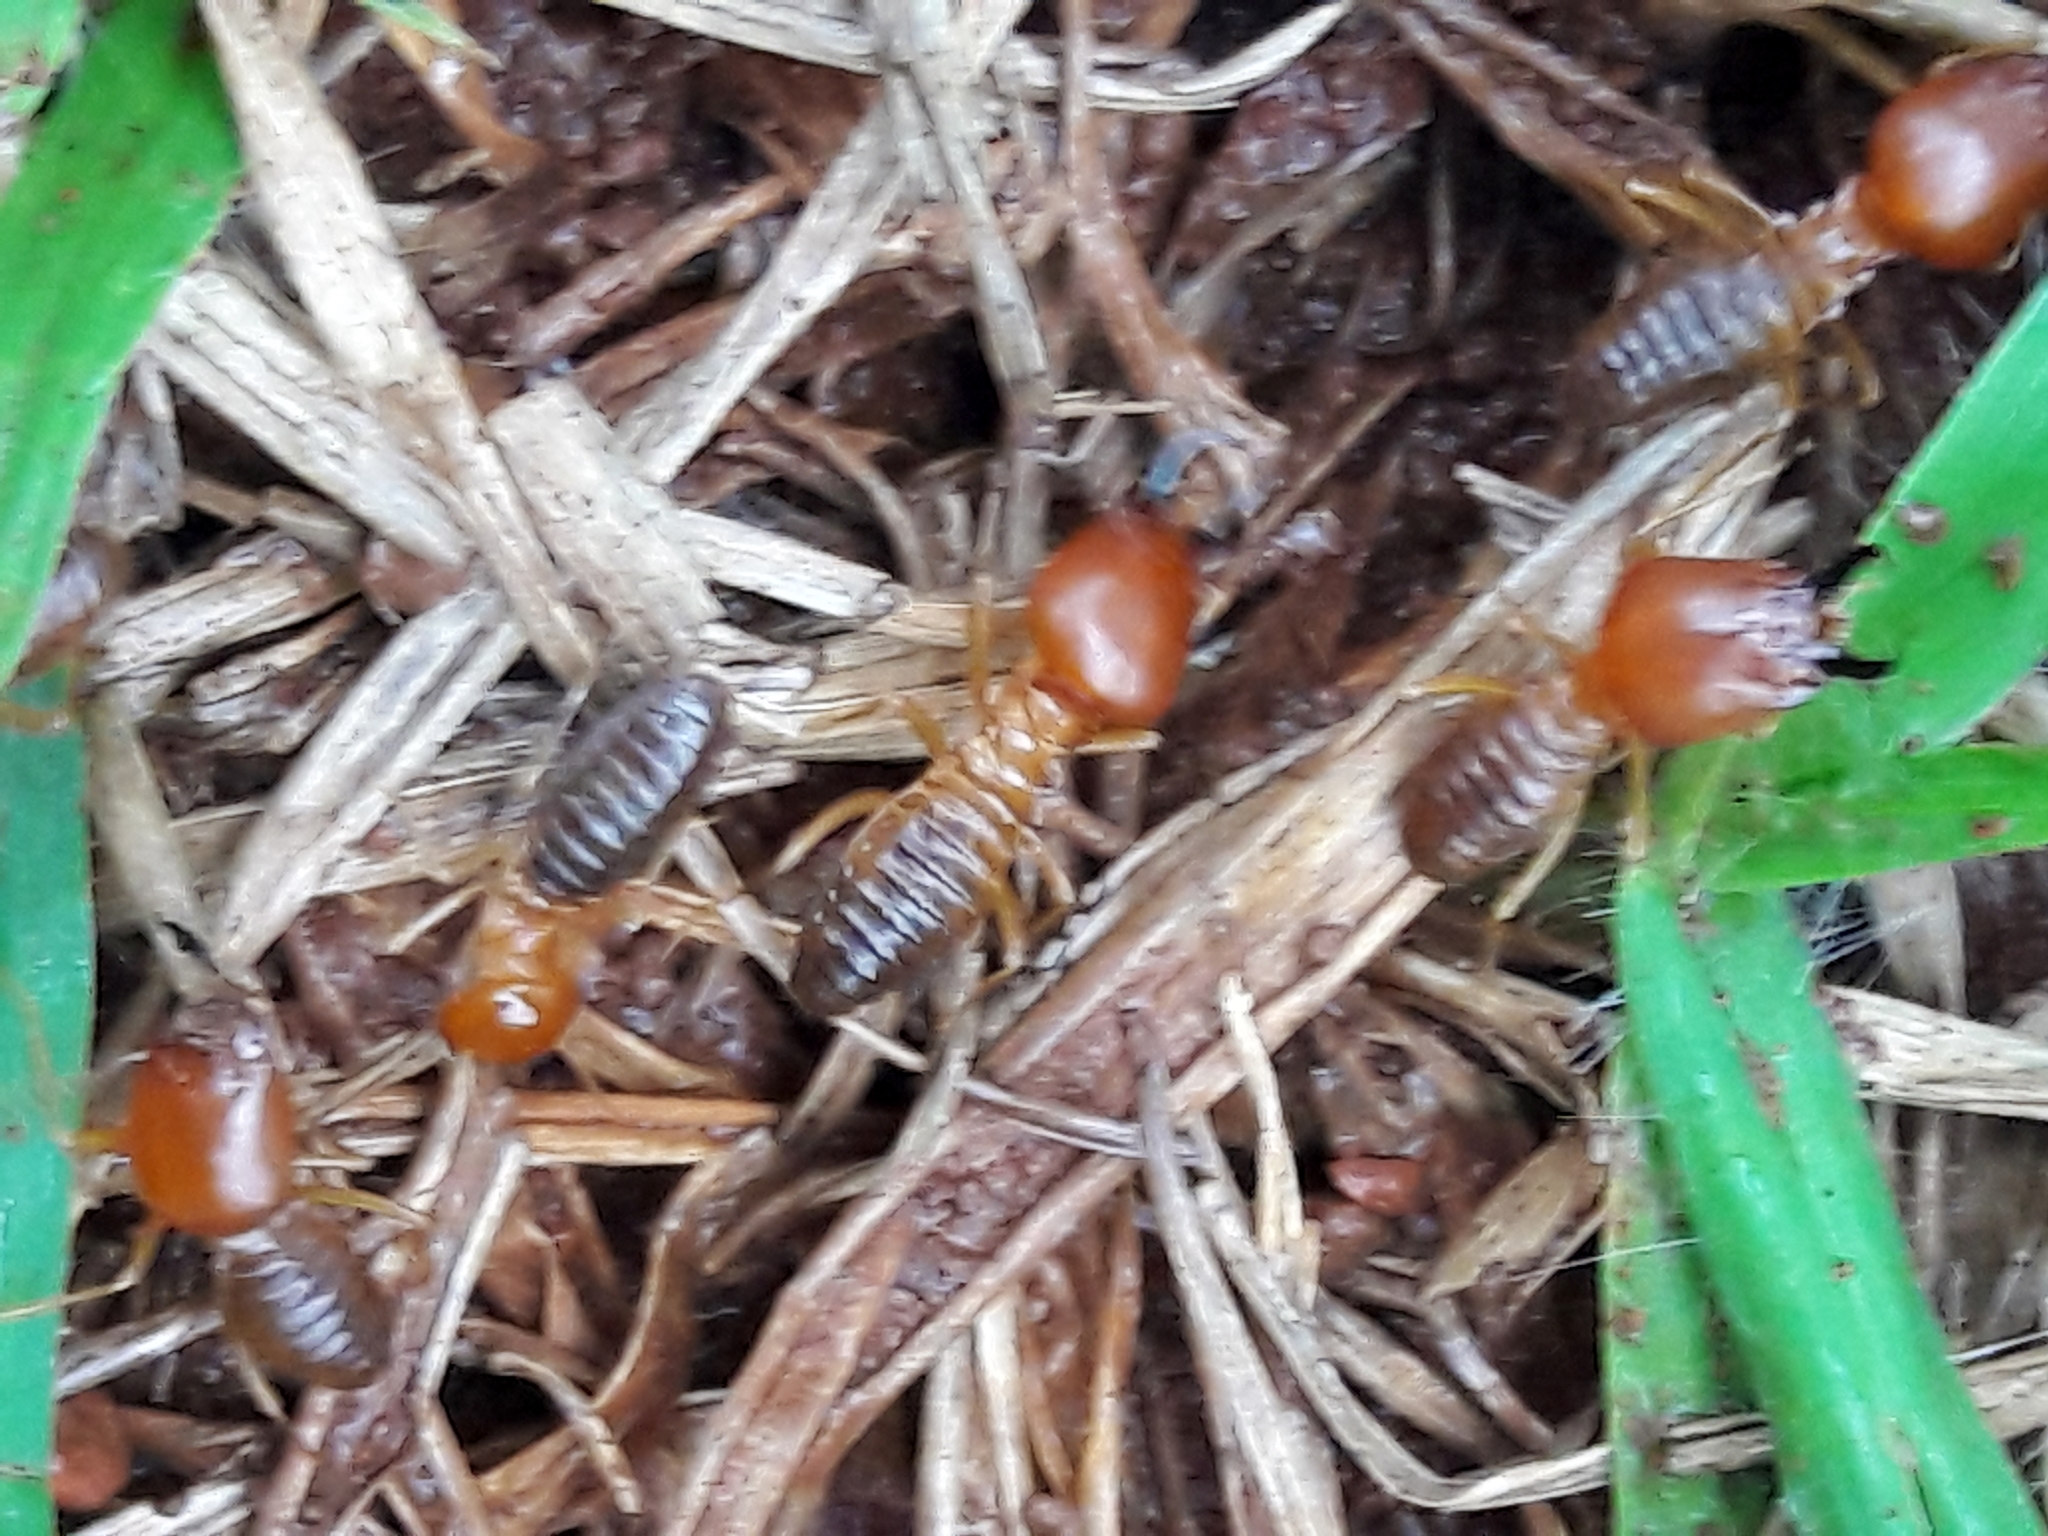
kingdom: Animalia
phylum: Arthropoda
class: Insecta
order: Blattodea
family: Termitidae
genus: Syntermes
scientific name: Syntermes nanus
